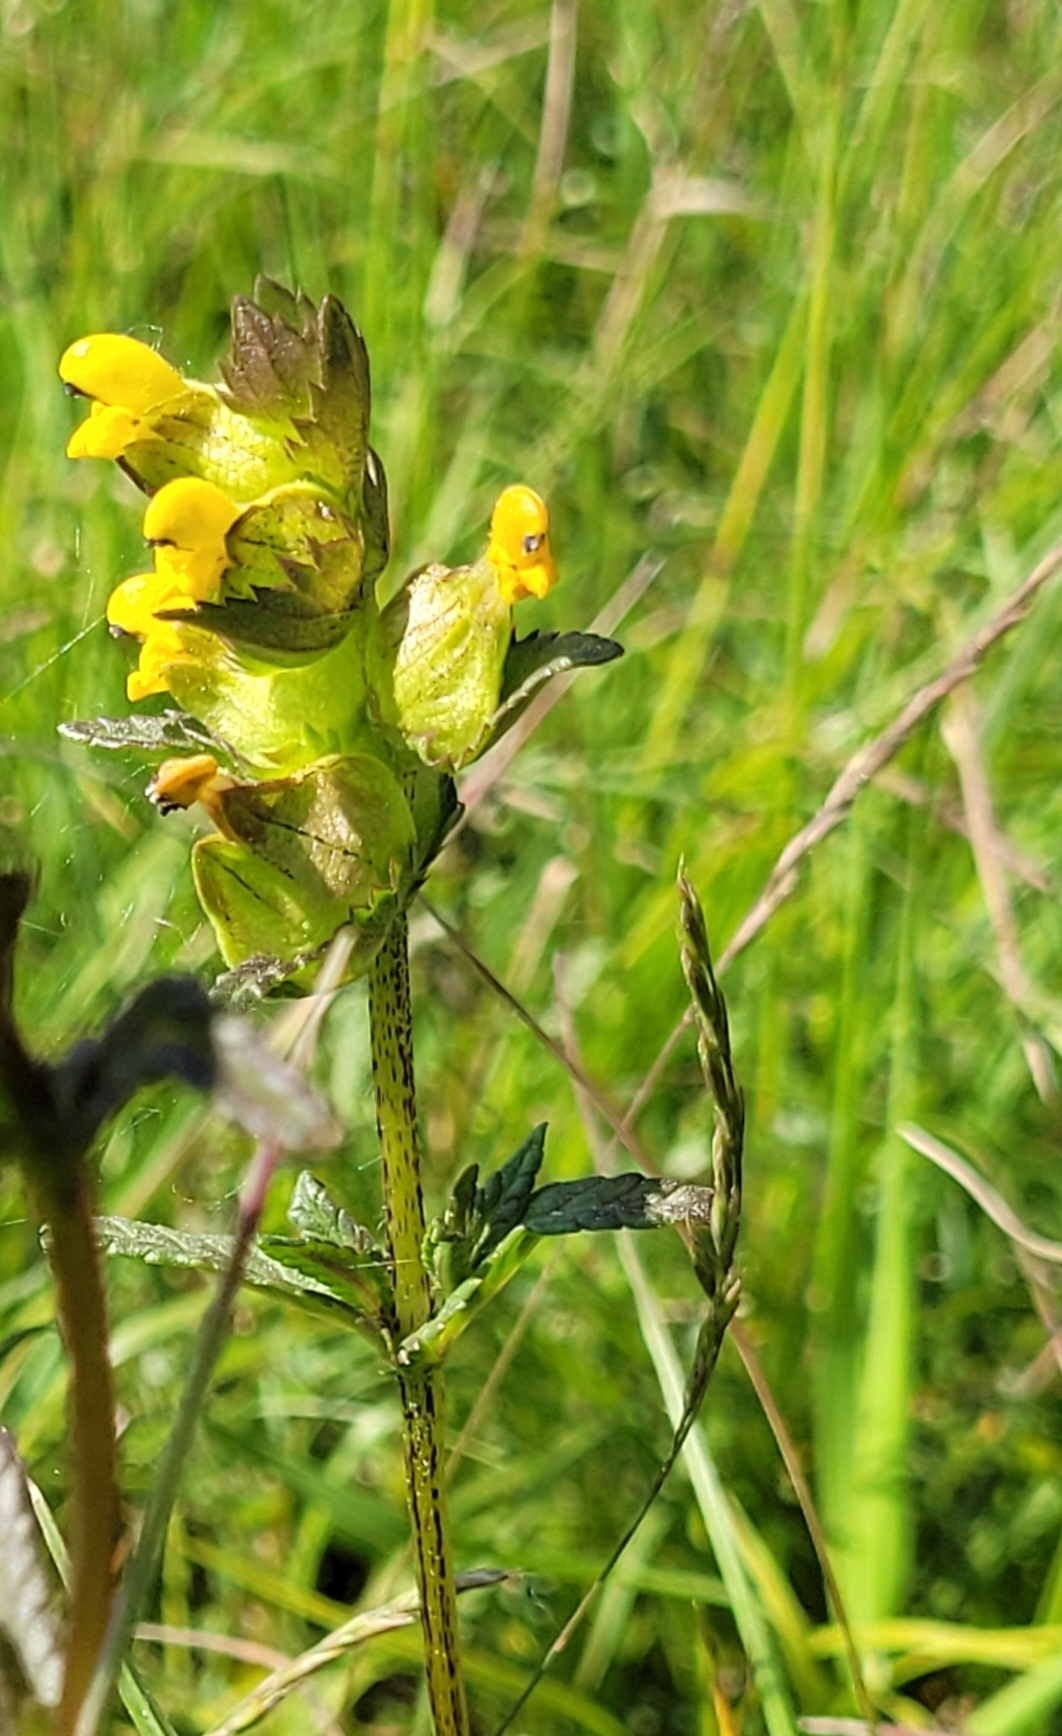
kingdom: Plantae
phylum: Tracheophyta
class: Magnoliopsida
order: Lamiales
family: Orobanchaceae
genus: Rhinanthus
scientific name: Rhinanthus minor
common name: Yellow-rattle
